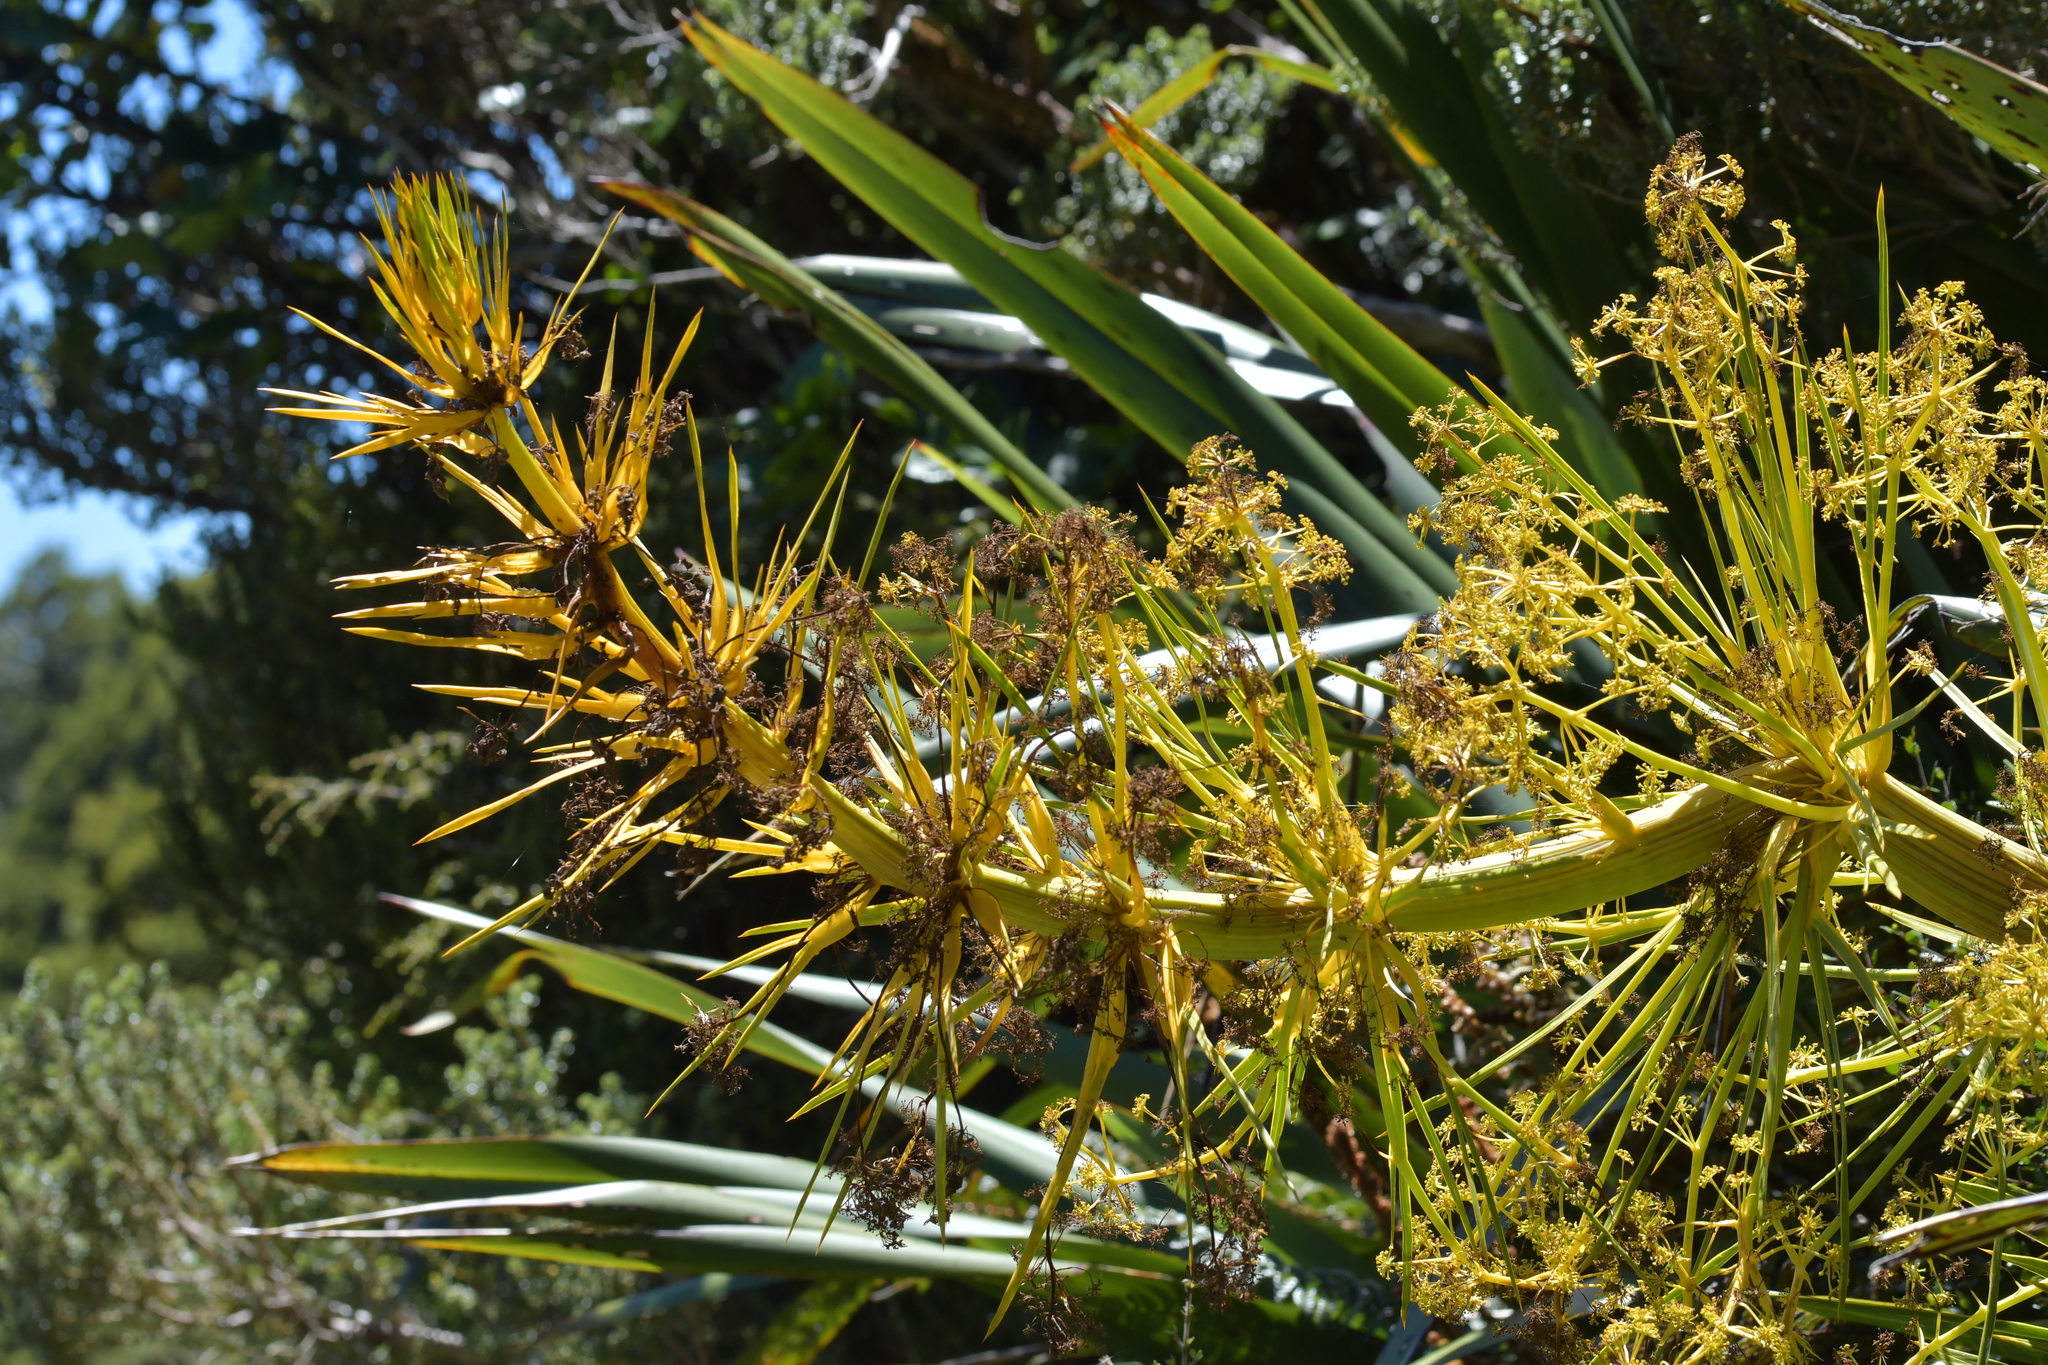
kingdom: Plantae
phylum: Tracheophyta
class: Magnoliopsida
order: Apiales
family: Apiaceae
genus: Aciphylla
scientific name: Aciphylla horrida
